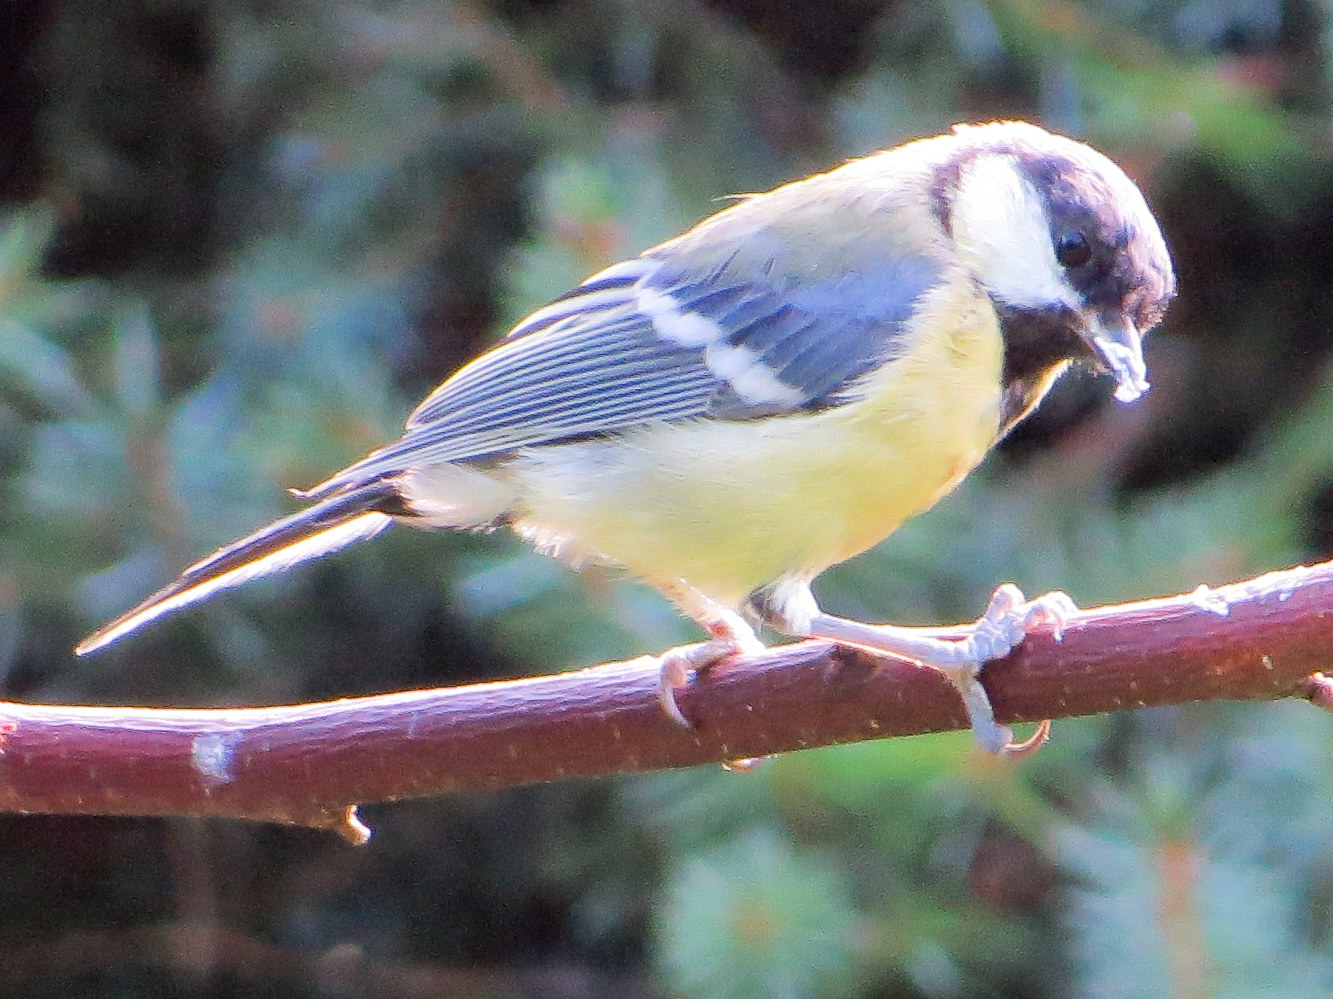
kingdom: Animalia
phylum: Chordata
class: Aves
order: Passeriformes
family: Paridae
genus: Parus
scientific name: Parus major
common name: Great tit
